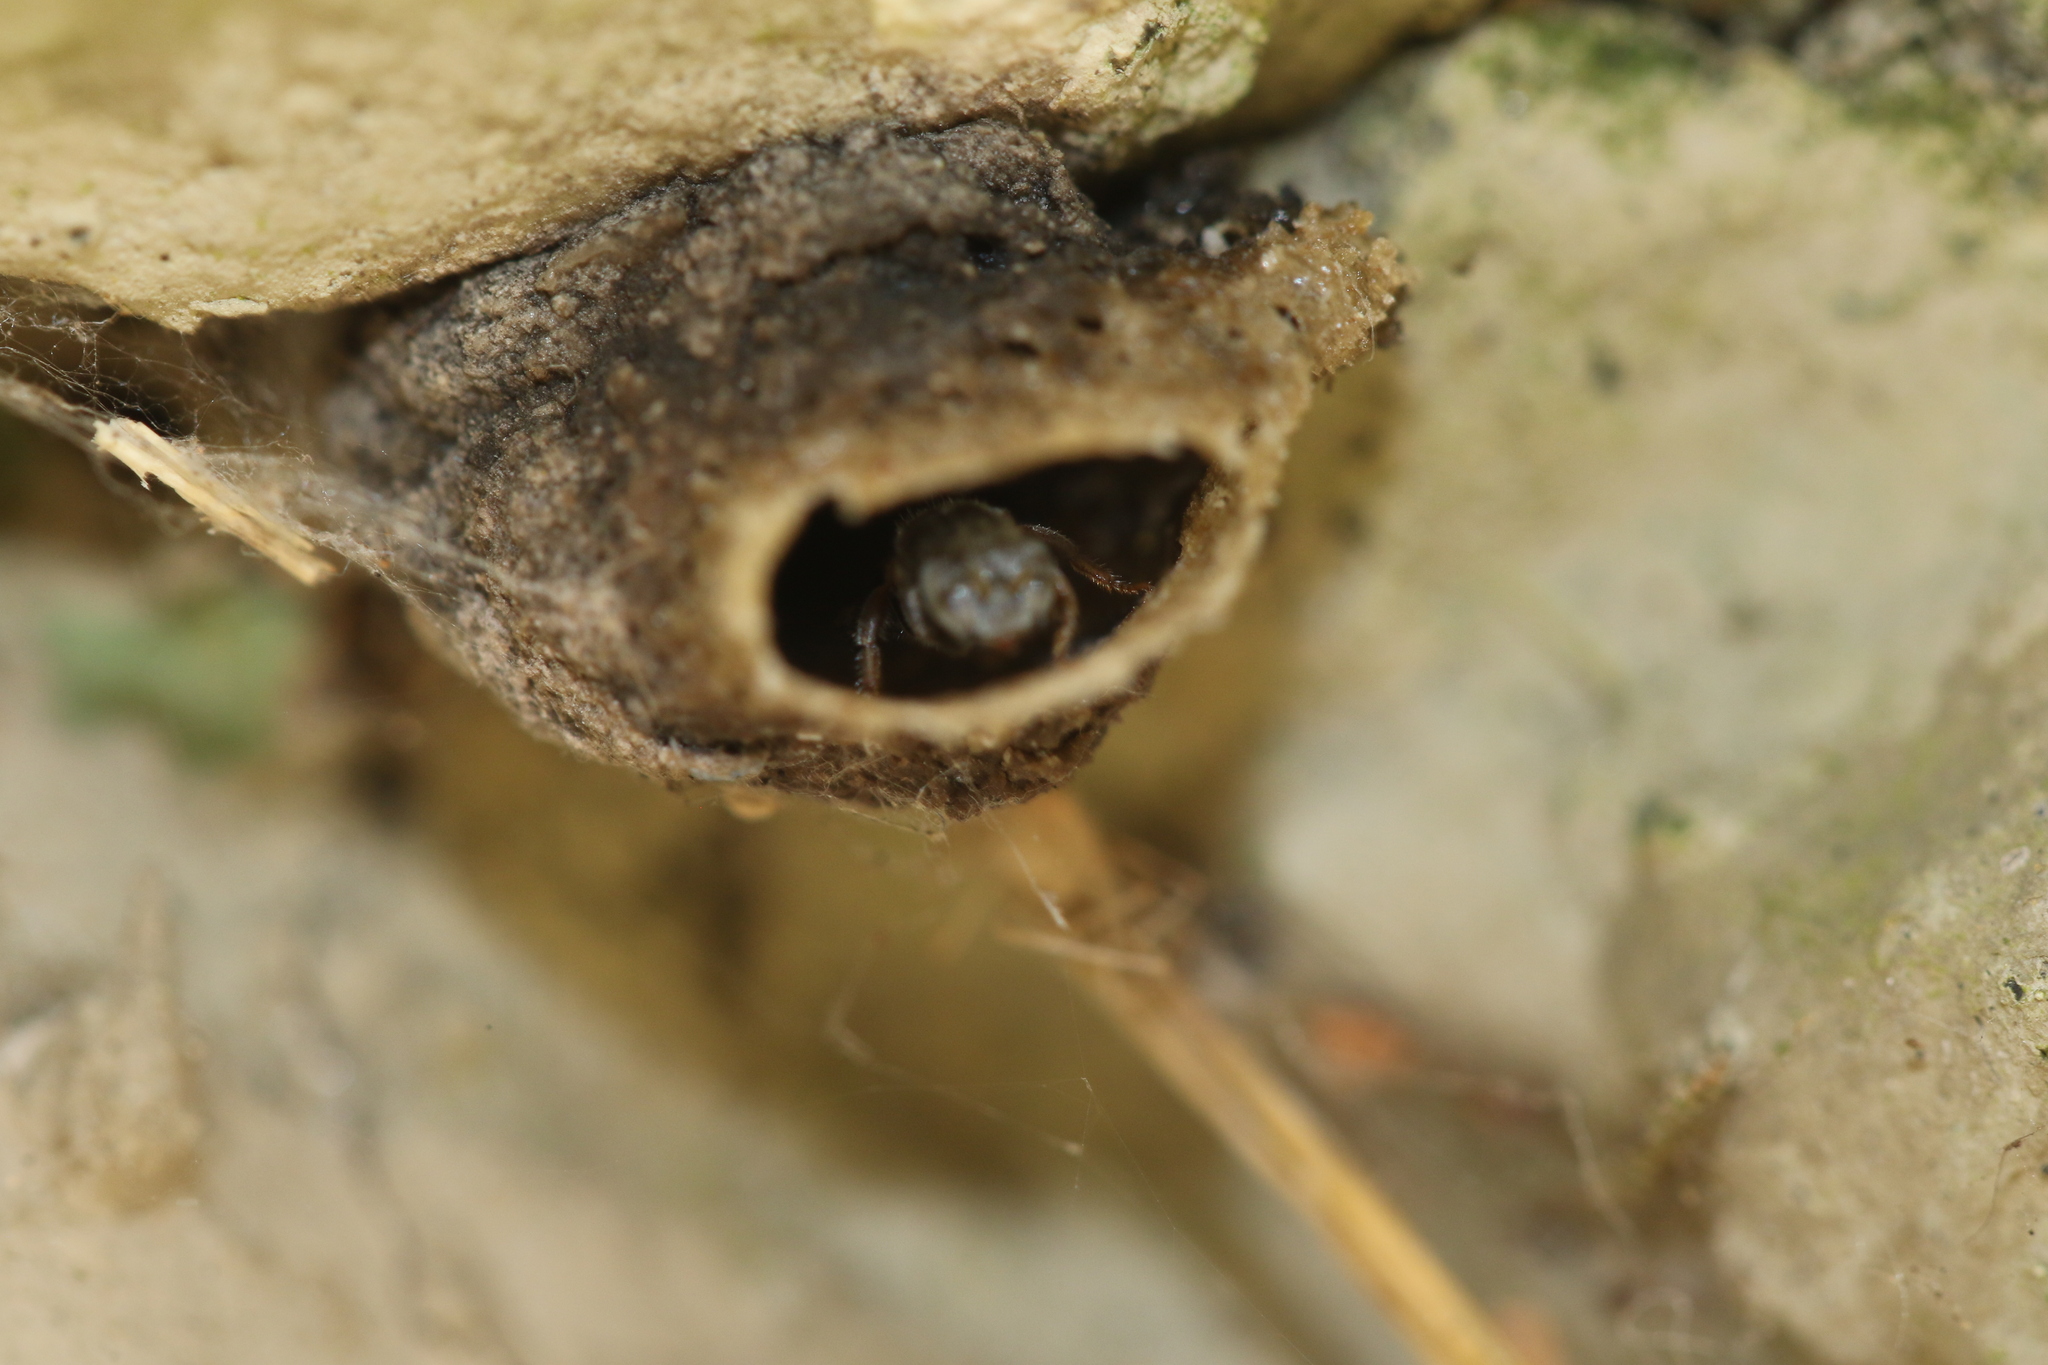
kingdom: Animalia
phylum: Arthropoda
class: Insecta
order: Hymenoptera
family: Apidae
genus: Friesella
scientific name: Friesella schrottkyi
